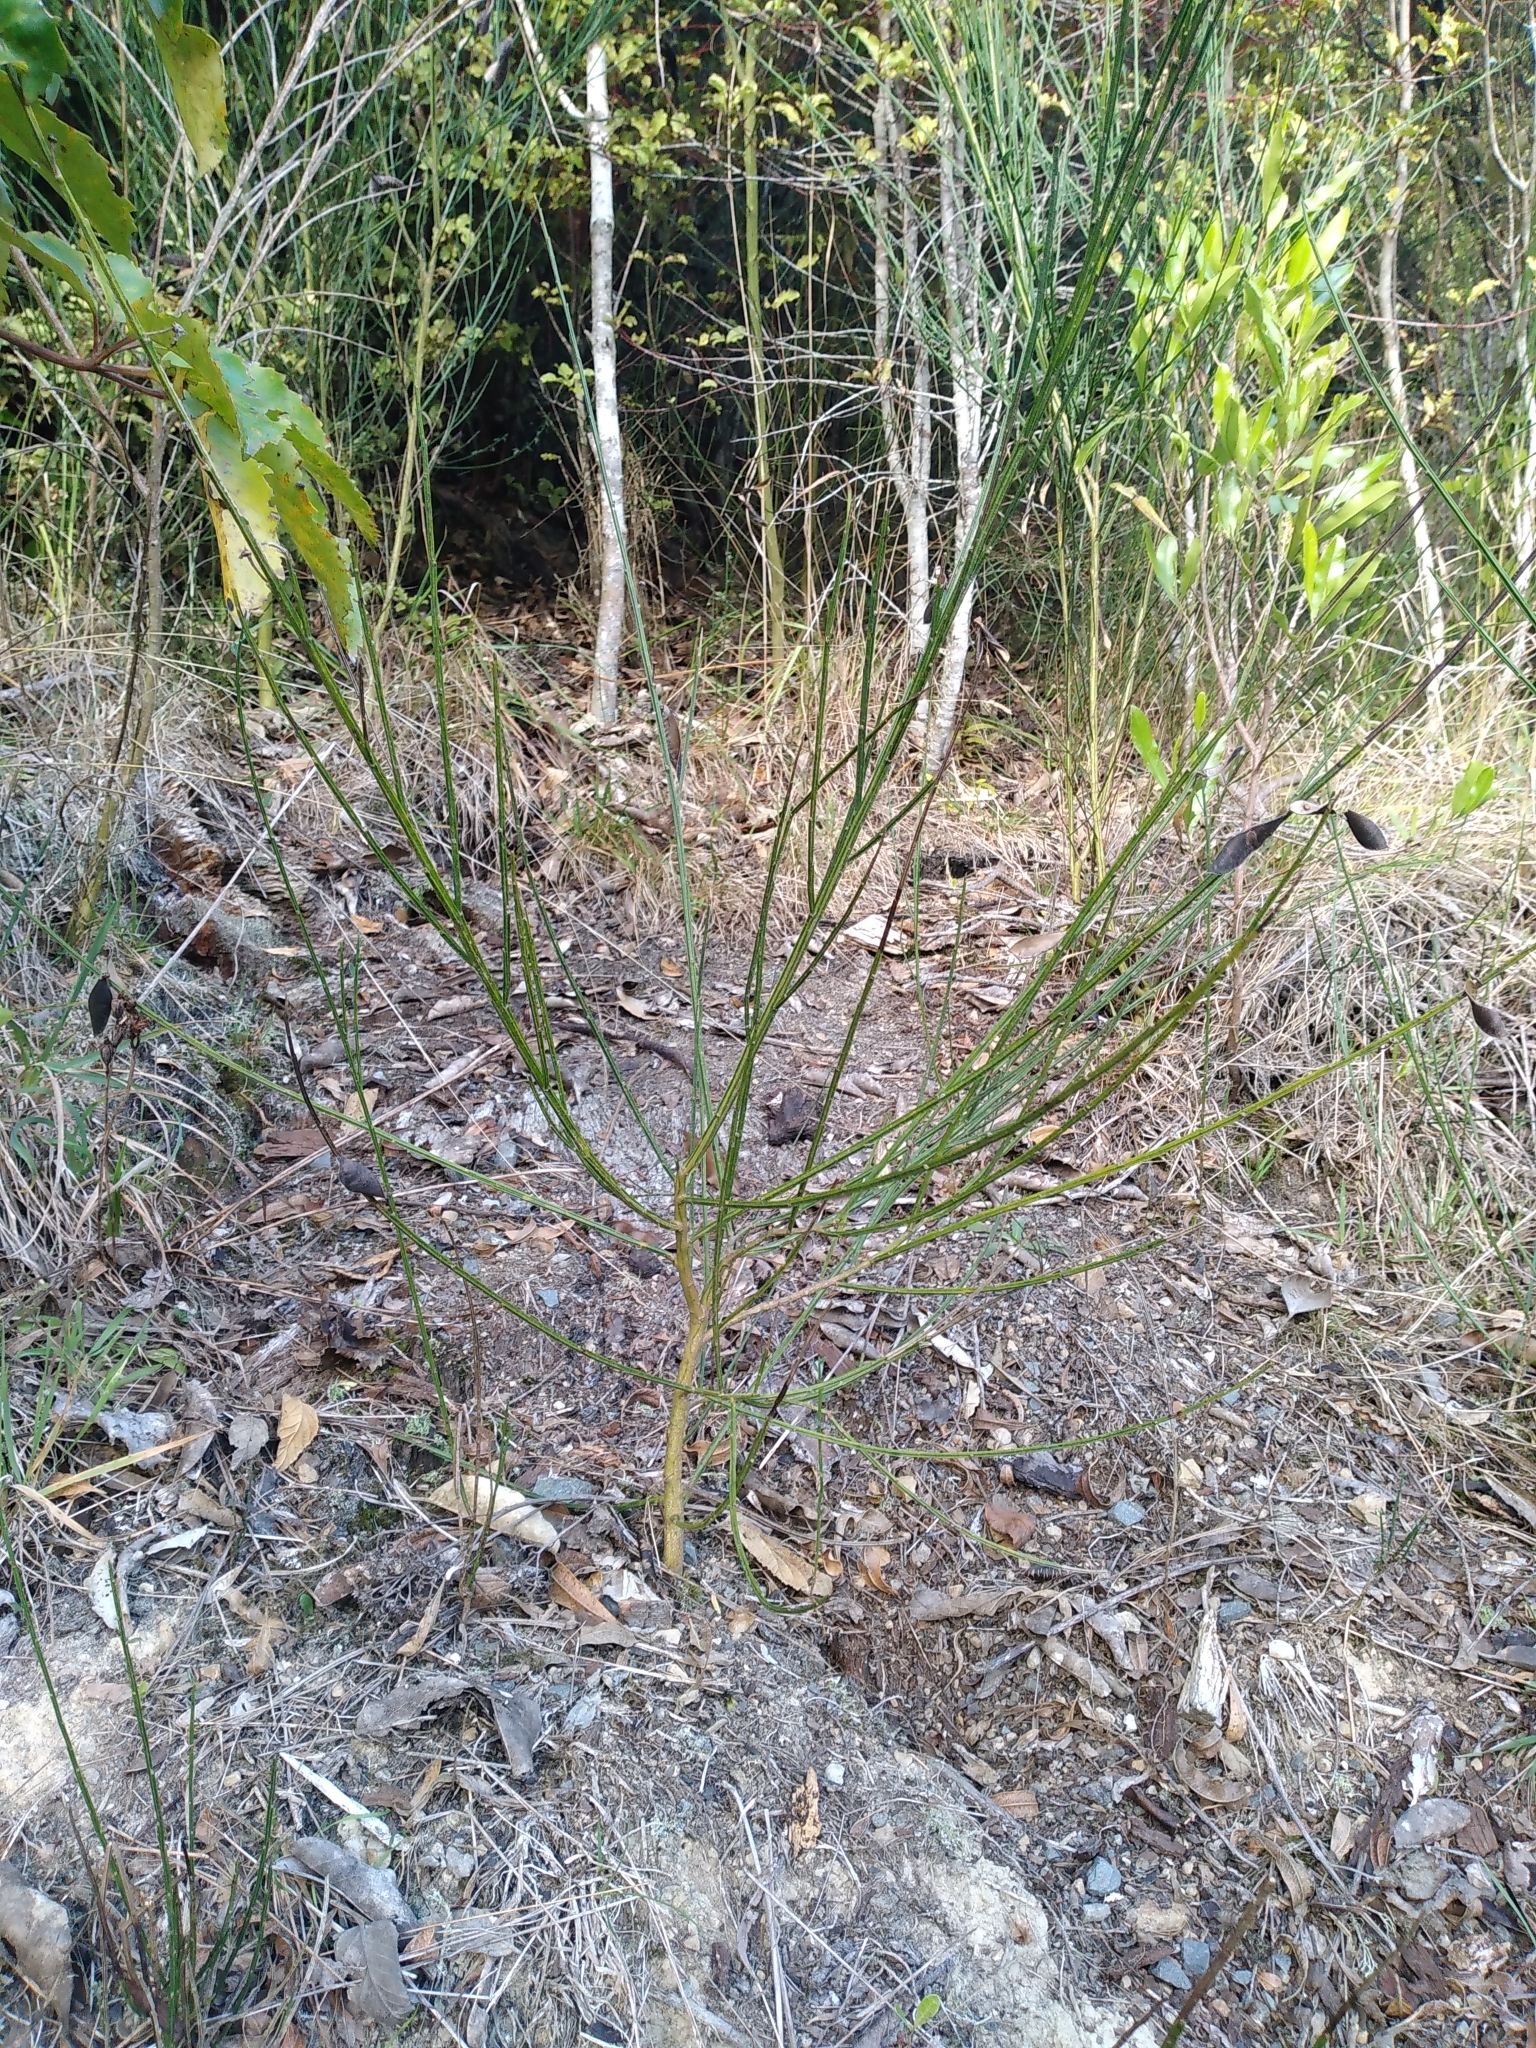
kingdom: Plantae
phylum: Tracheophyta
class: Magnoliopsida
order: Fabales
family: Fabaceae
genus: Cytisus
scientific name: Cytisus scoparius
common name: Scotch broom
